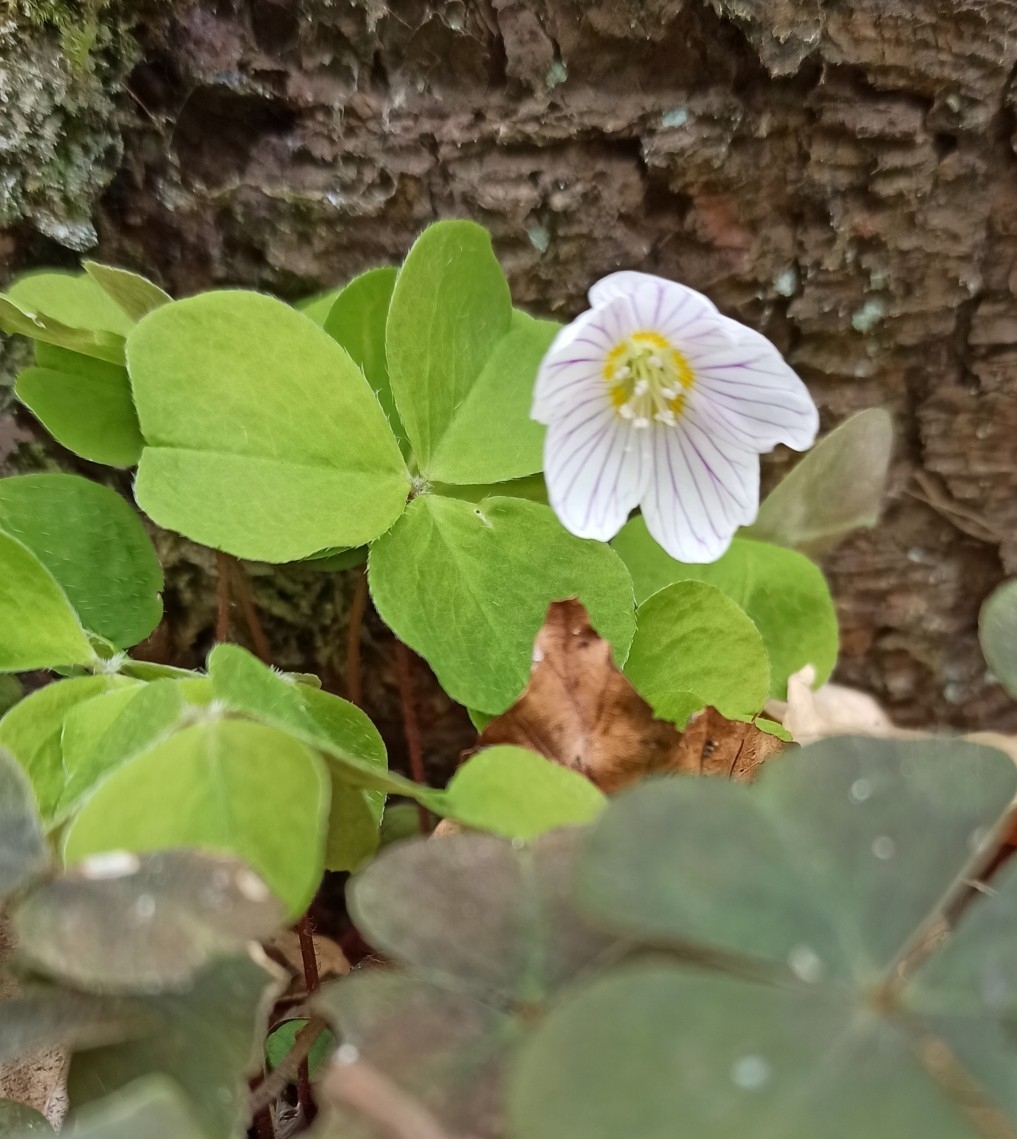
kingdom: Plantae
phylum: Tracheophyta
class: Magnoliopsida
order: Oxalidales
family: Oxalidaceae
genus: Oxalis
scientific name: Oxalis acetosella
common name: Wood-sorrel
